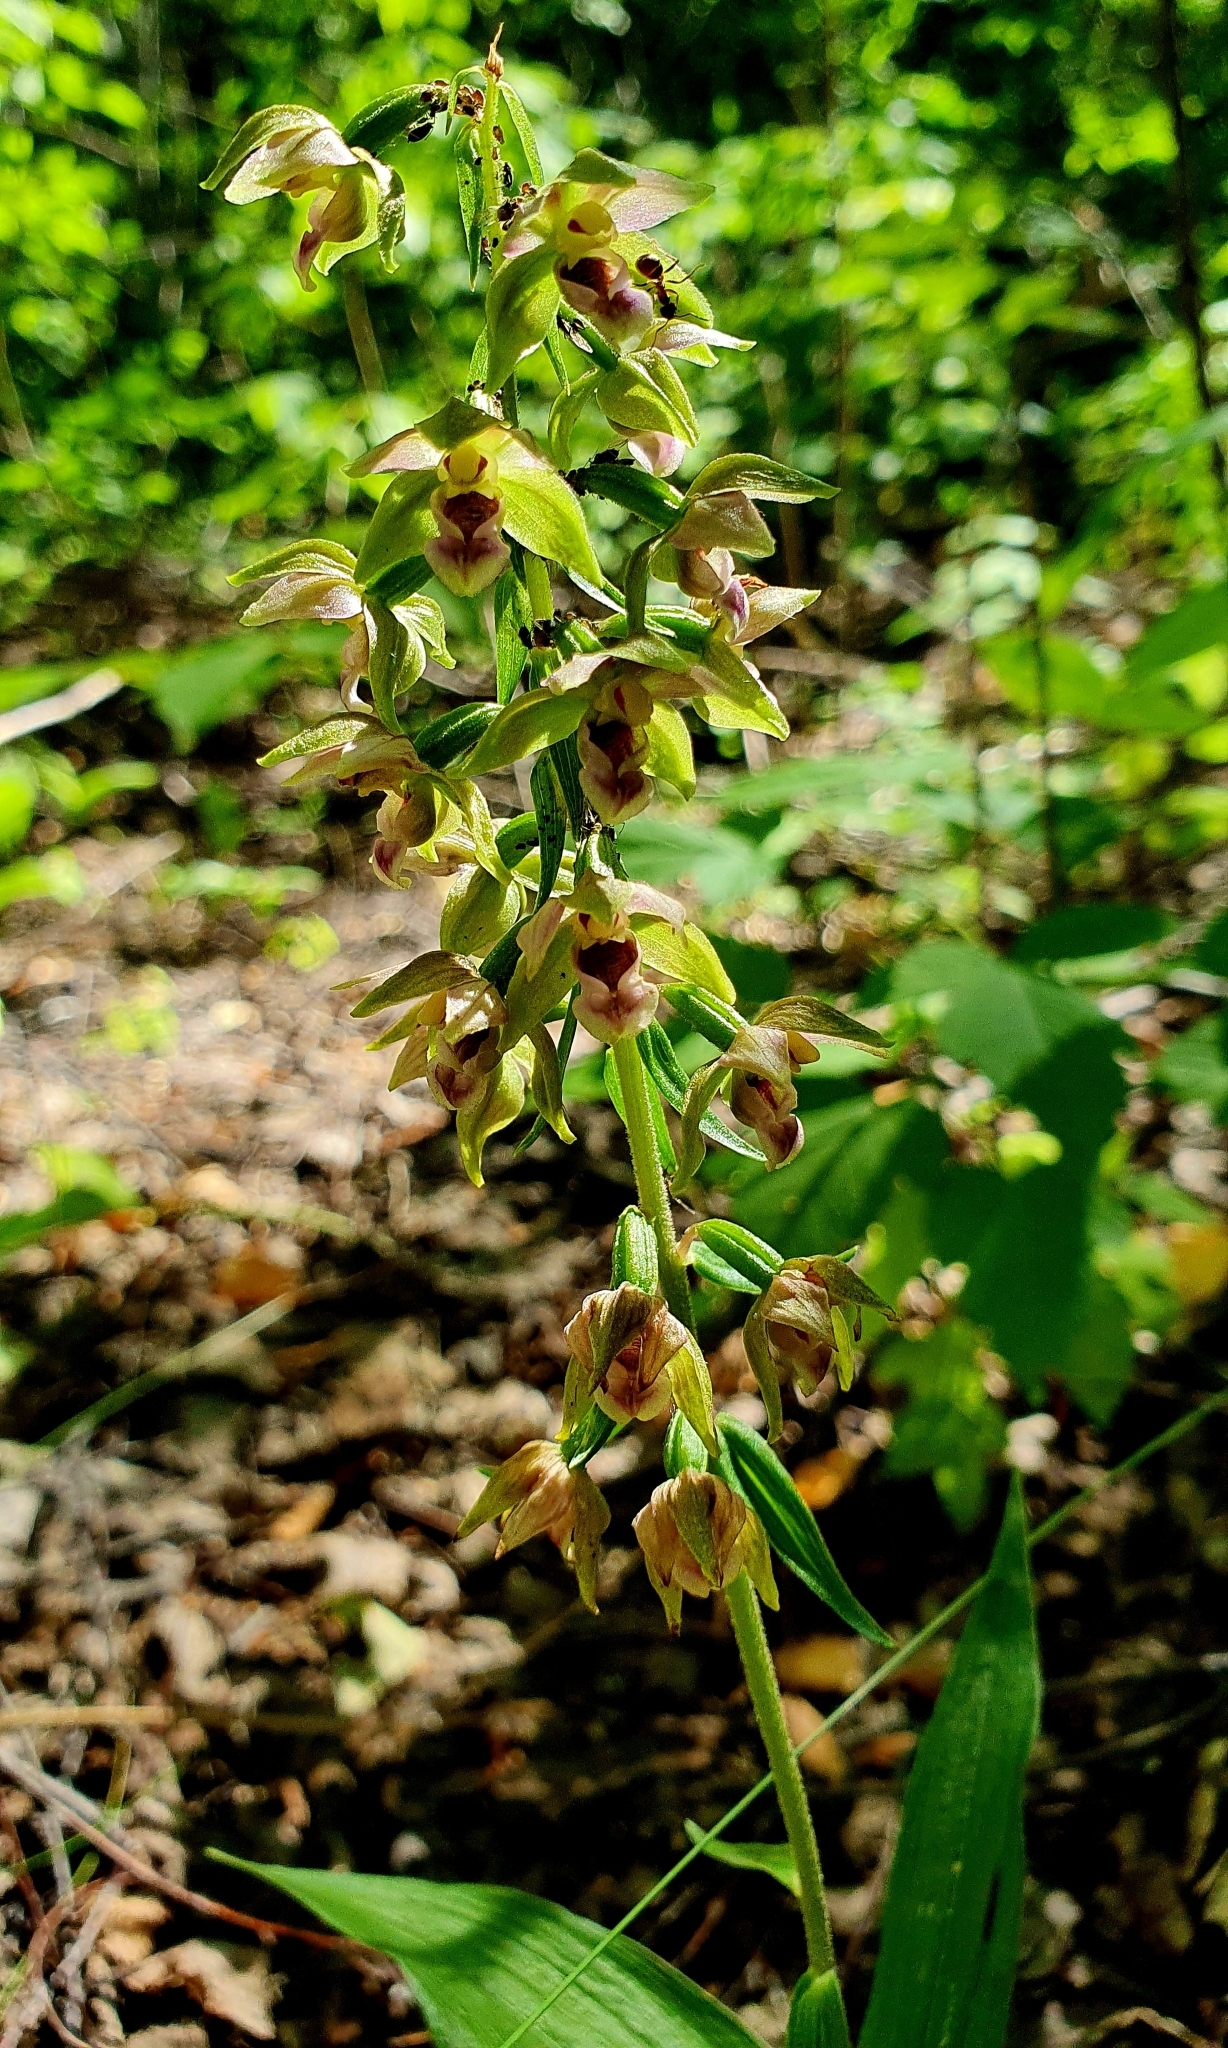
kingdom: Plantae
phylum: Tracheophyta
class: Liliopsida
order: Asparagales
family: Orchidaceae
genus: Epipactis
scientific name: Epipactis helleborine
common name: Broad-leaved helleborine
